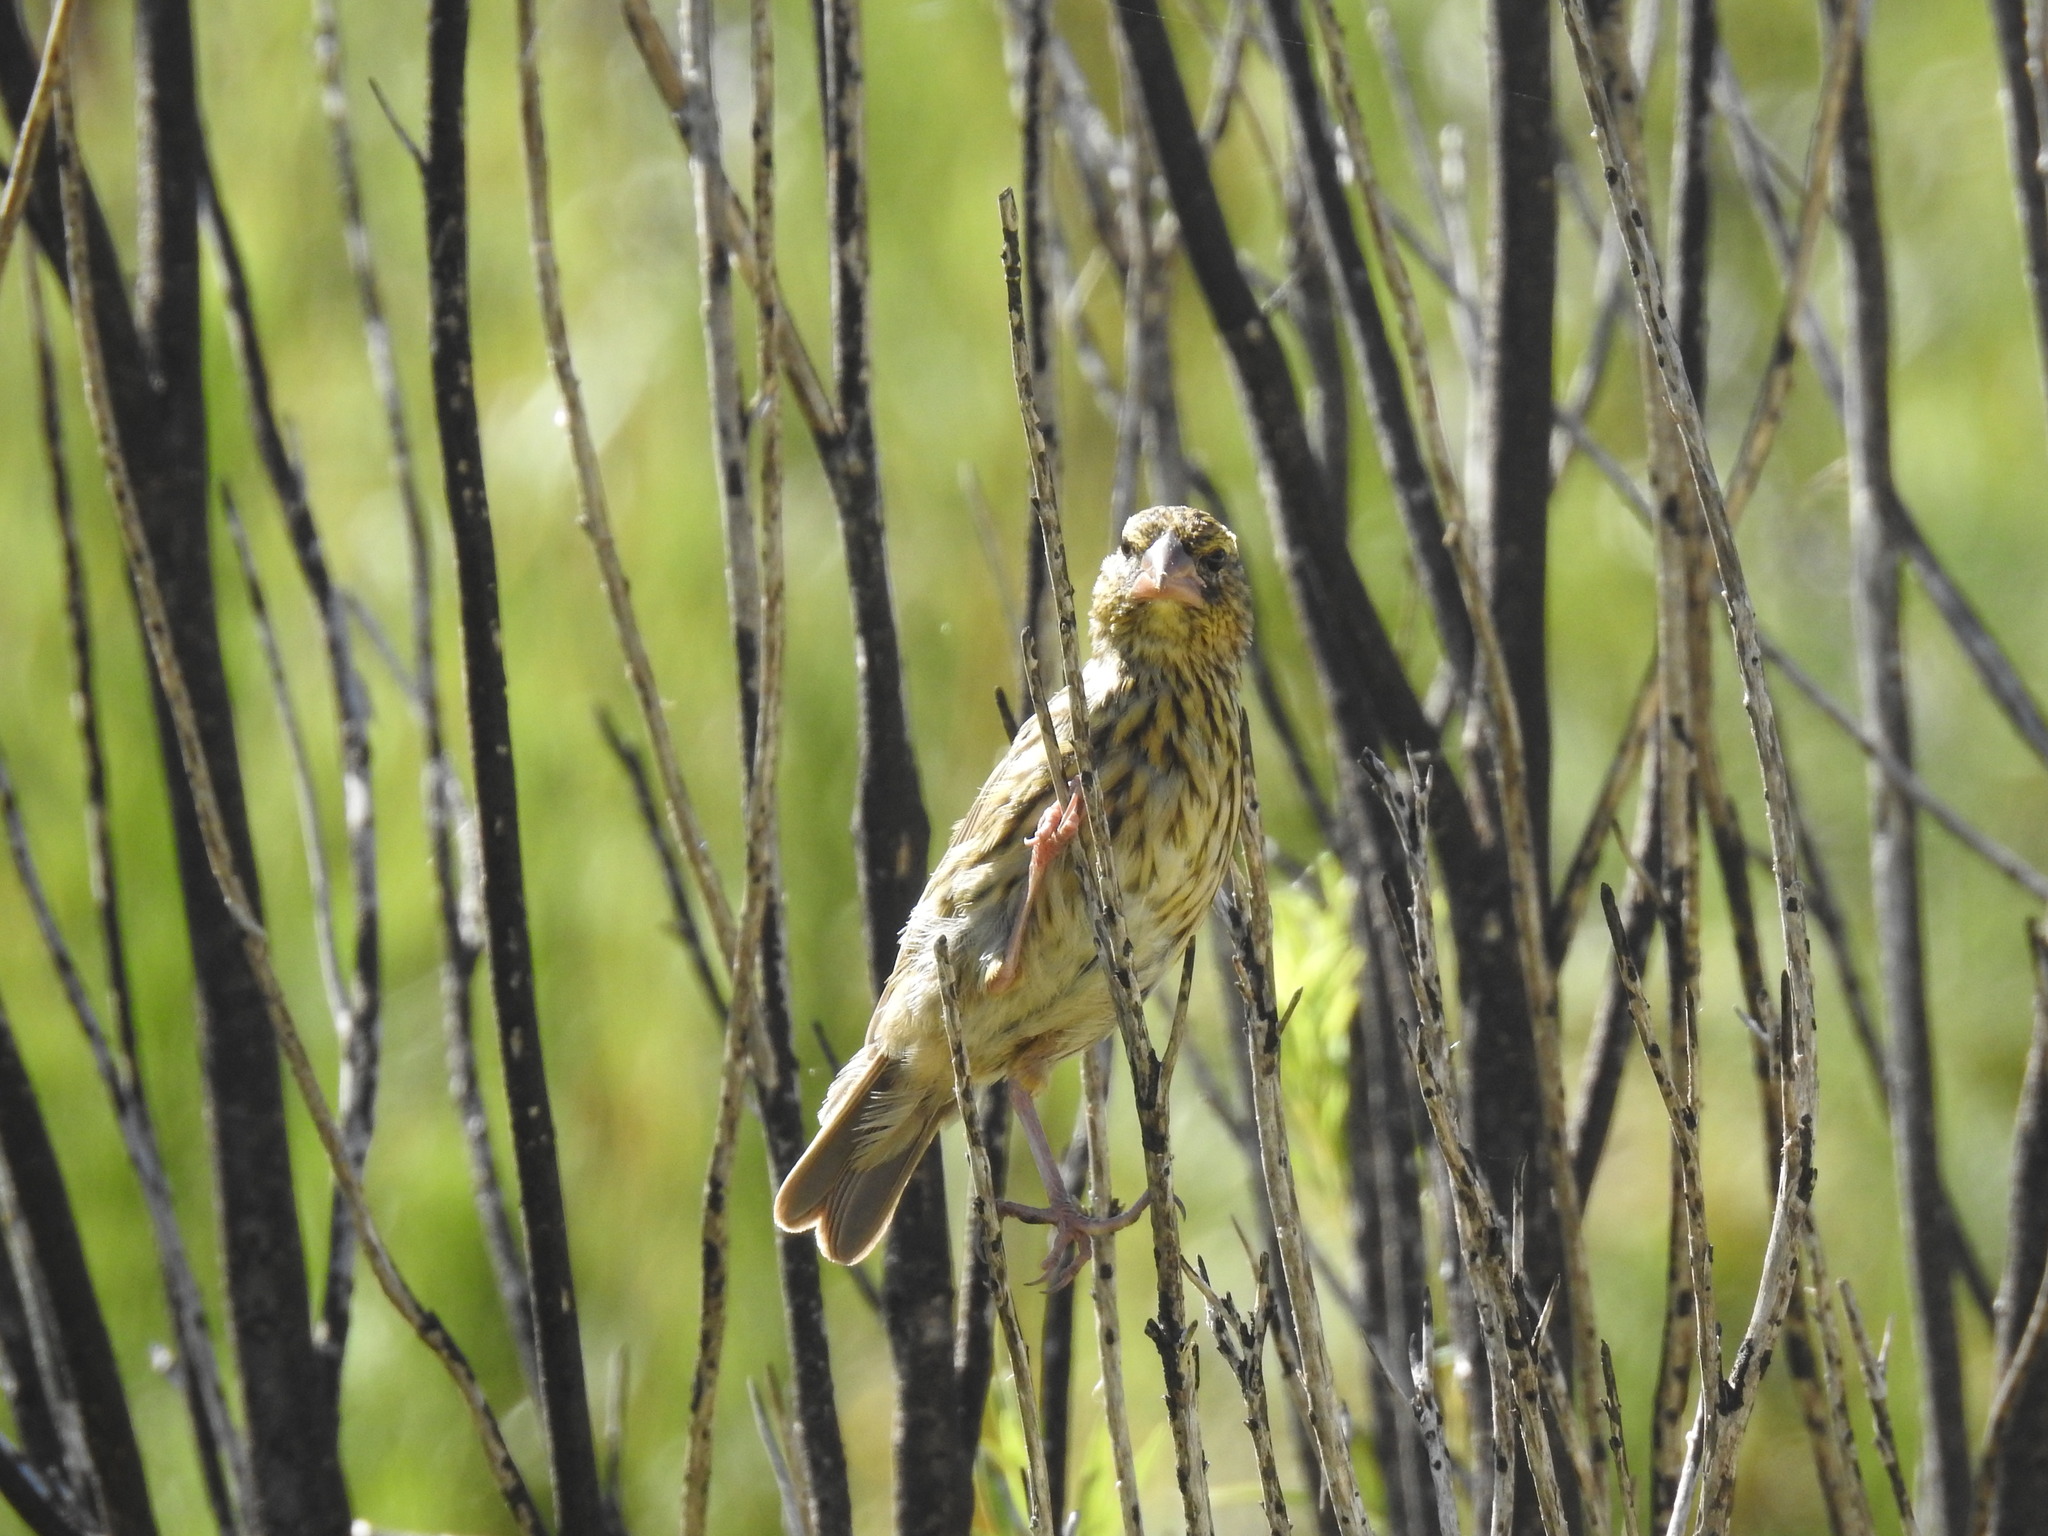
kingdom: Animalia
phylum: Chordata
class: Aves
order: Passeriformes
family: Fringillidae
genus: Crithagra
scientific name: Crithagra scotops
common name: Forest canary
